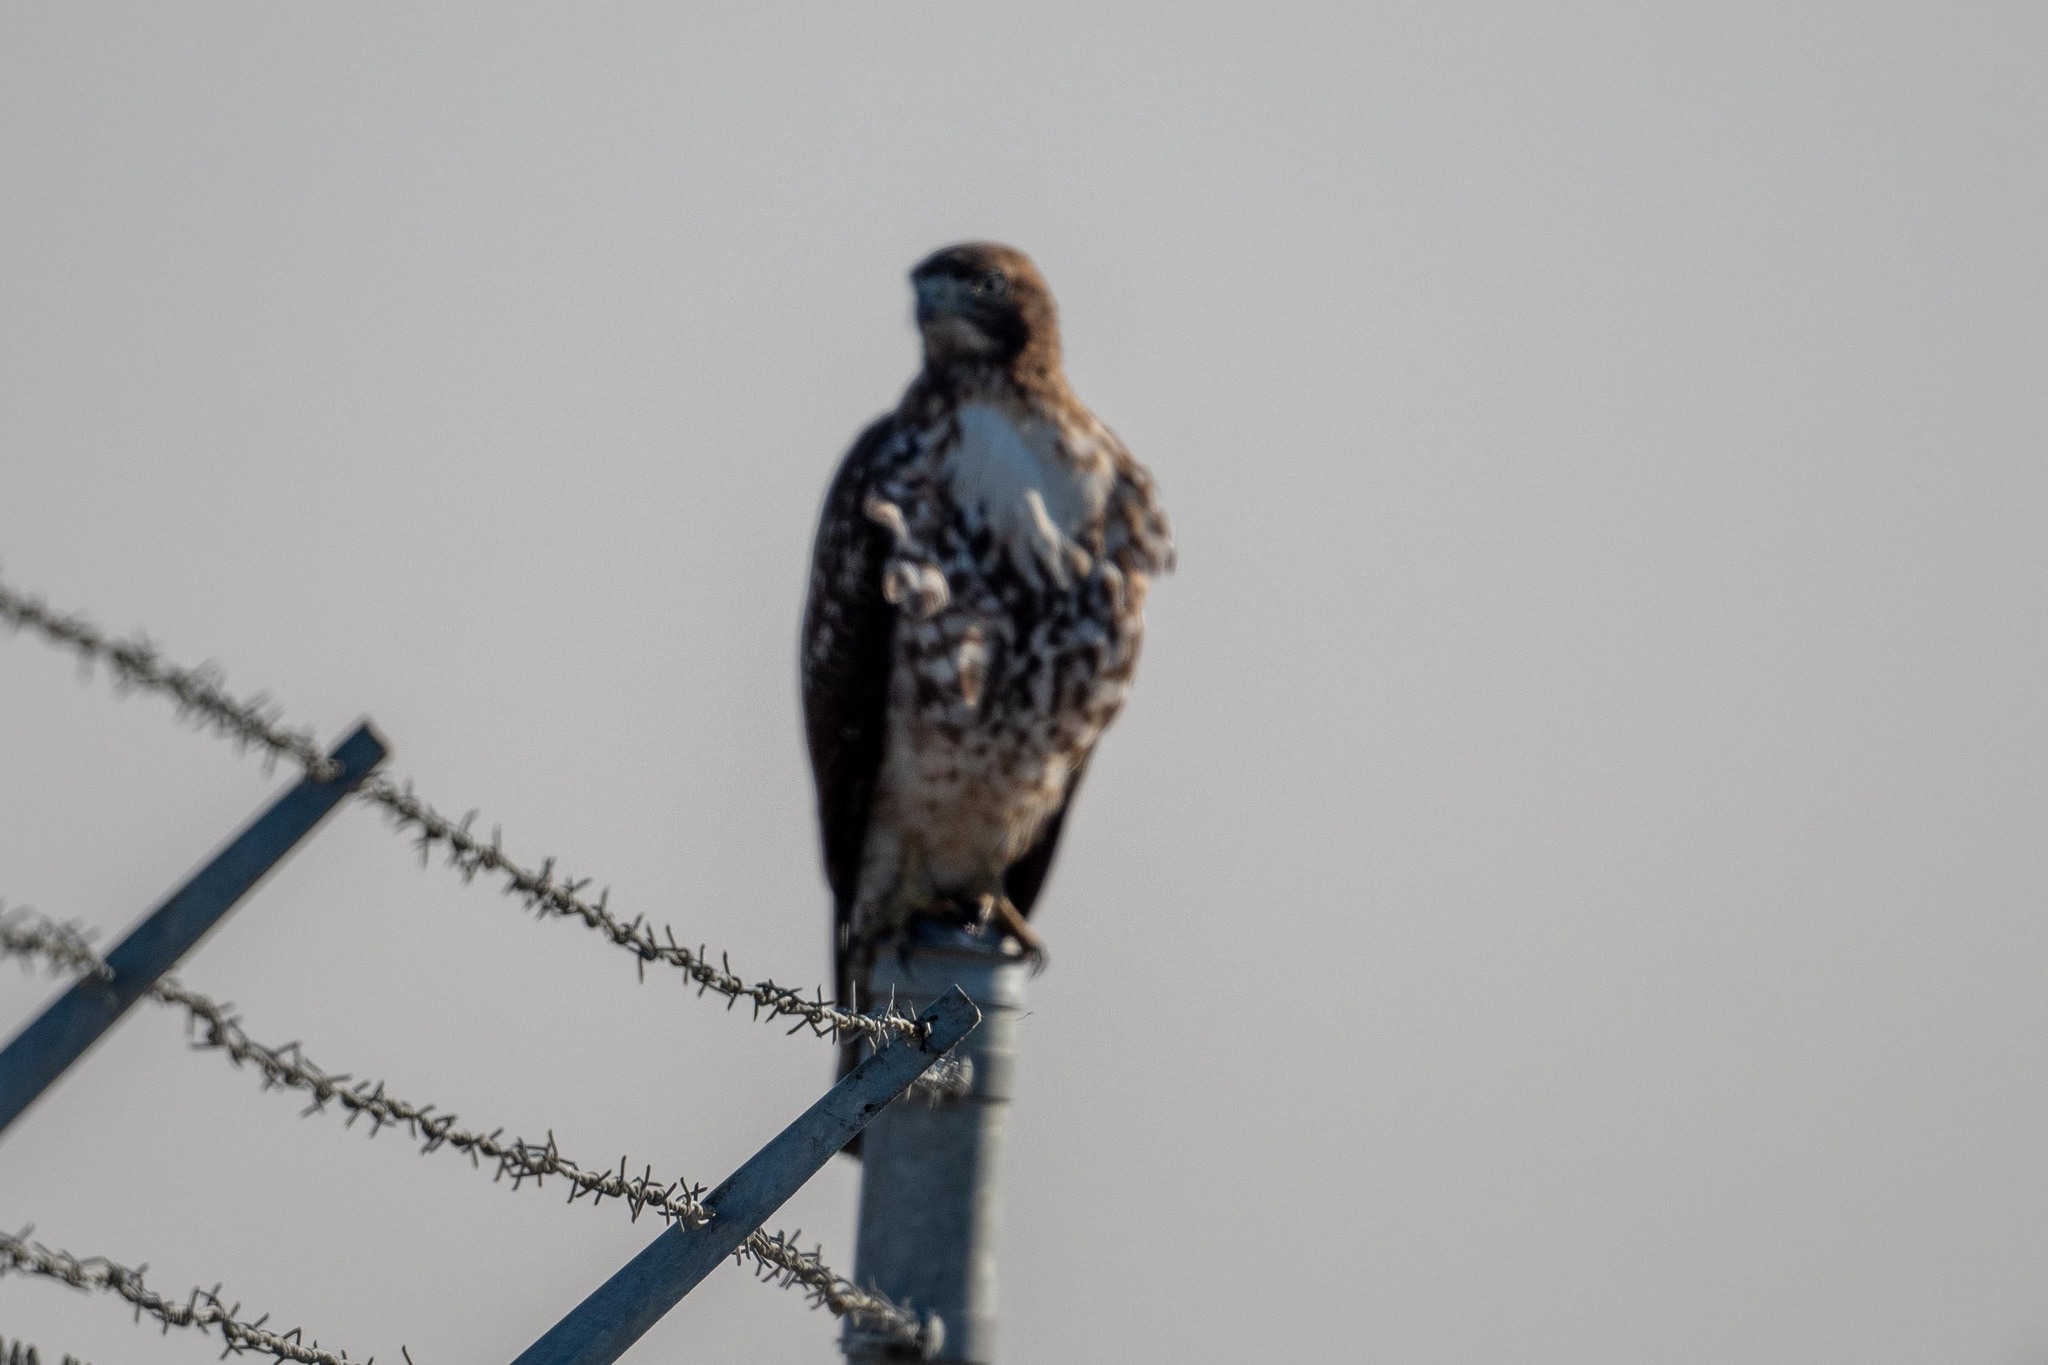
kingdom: Animalia
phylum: Chordata
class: Aves
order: Accipitriformes
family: Accipitridae
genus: Buteo
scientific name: Buteo jamaicensis
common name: Red-tailed hawk
